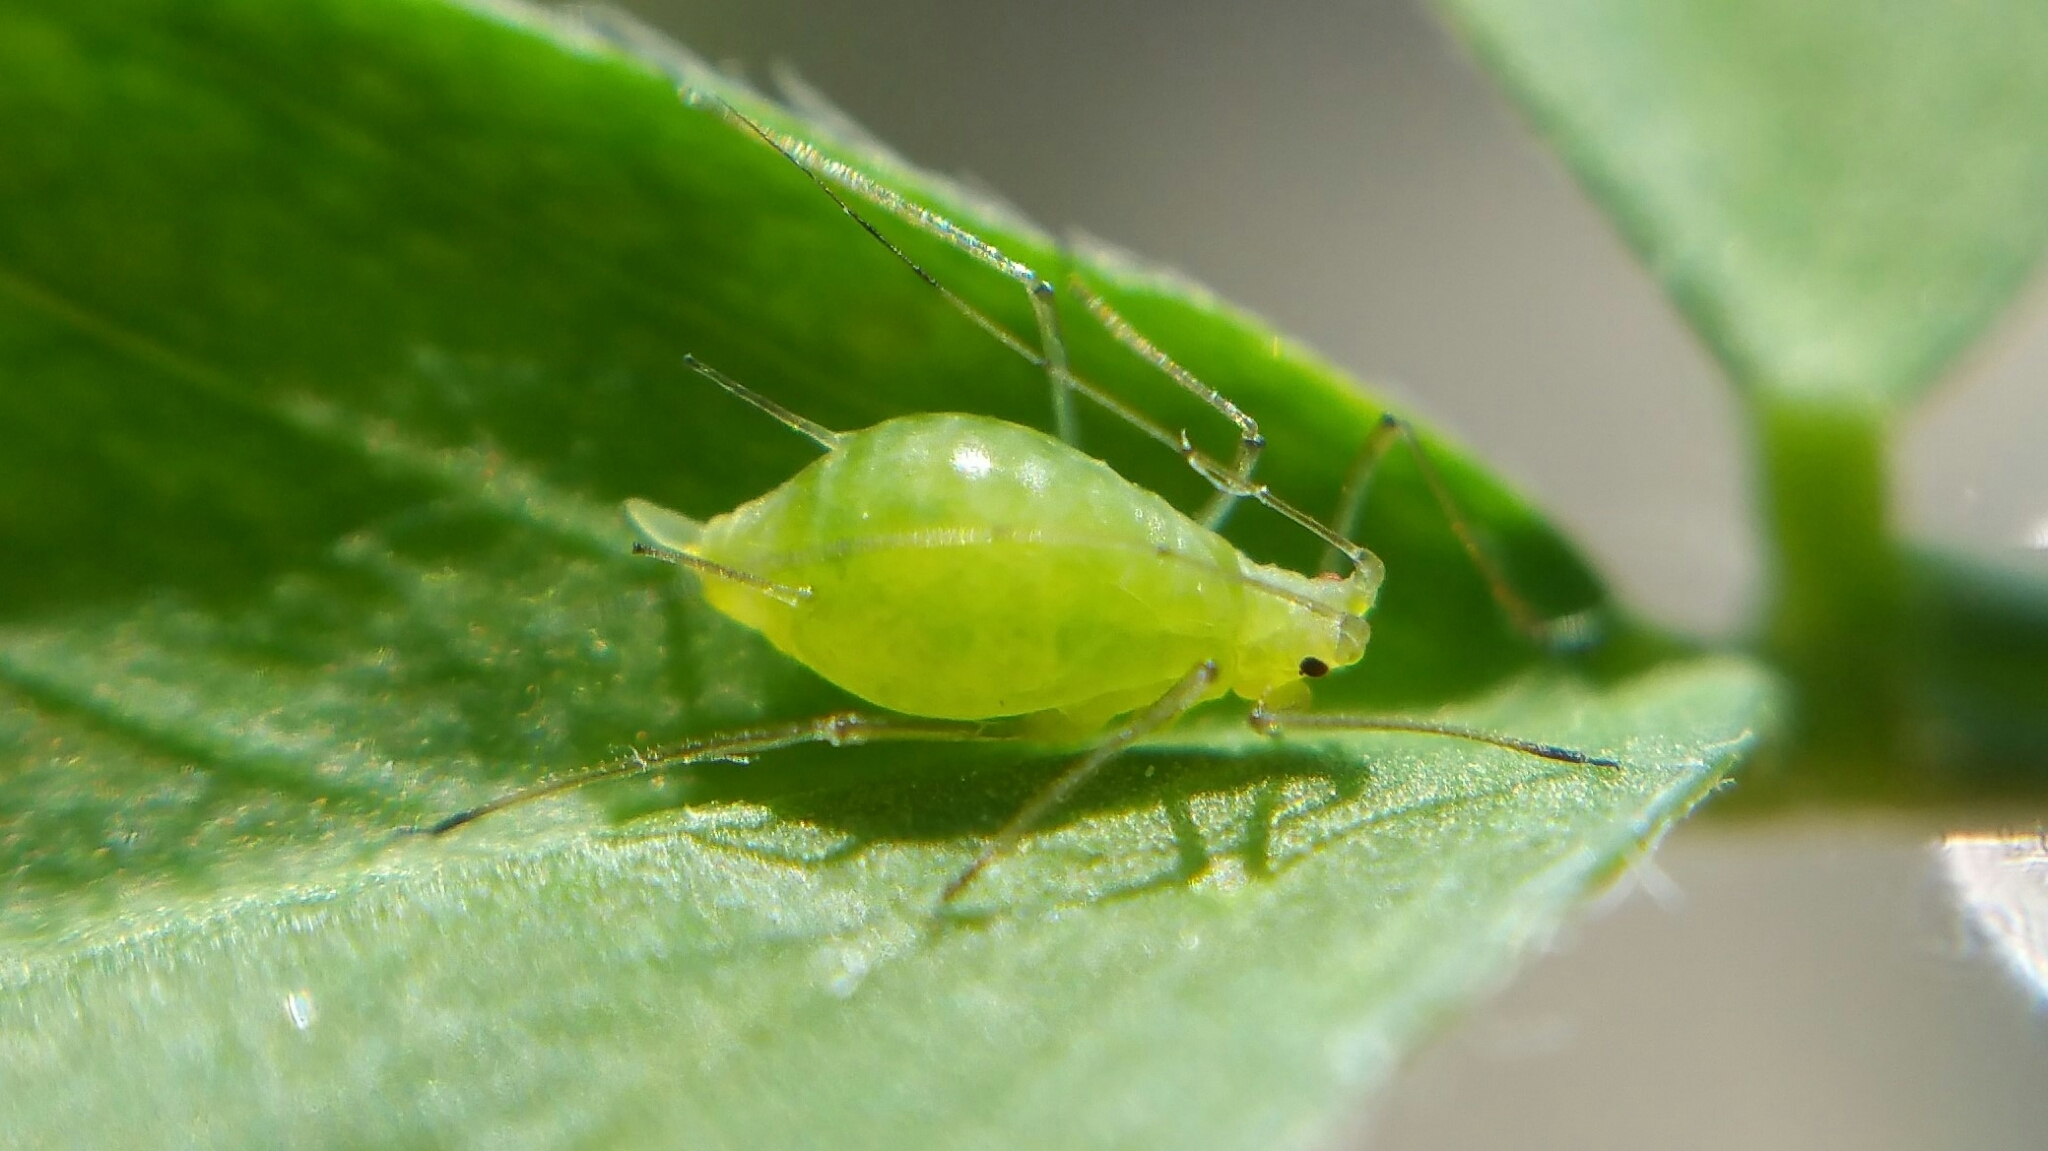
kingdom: Animalia
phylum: Arthropoda
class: Insecta
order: Hemiptera
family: Aphididae
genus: Acyrthosiphon
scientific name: Acyrthosiphon pisum
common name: Pea aphid
